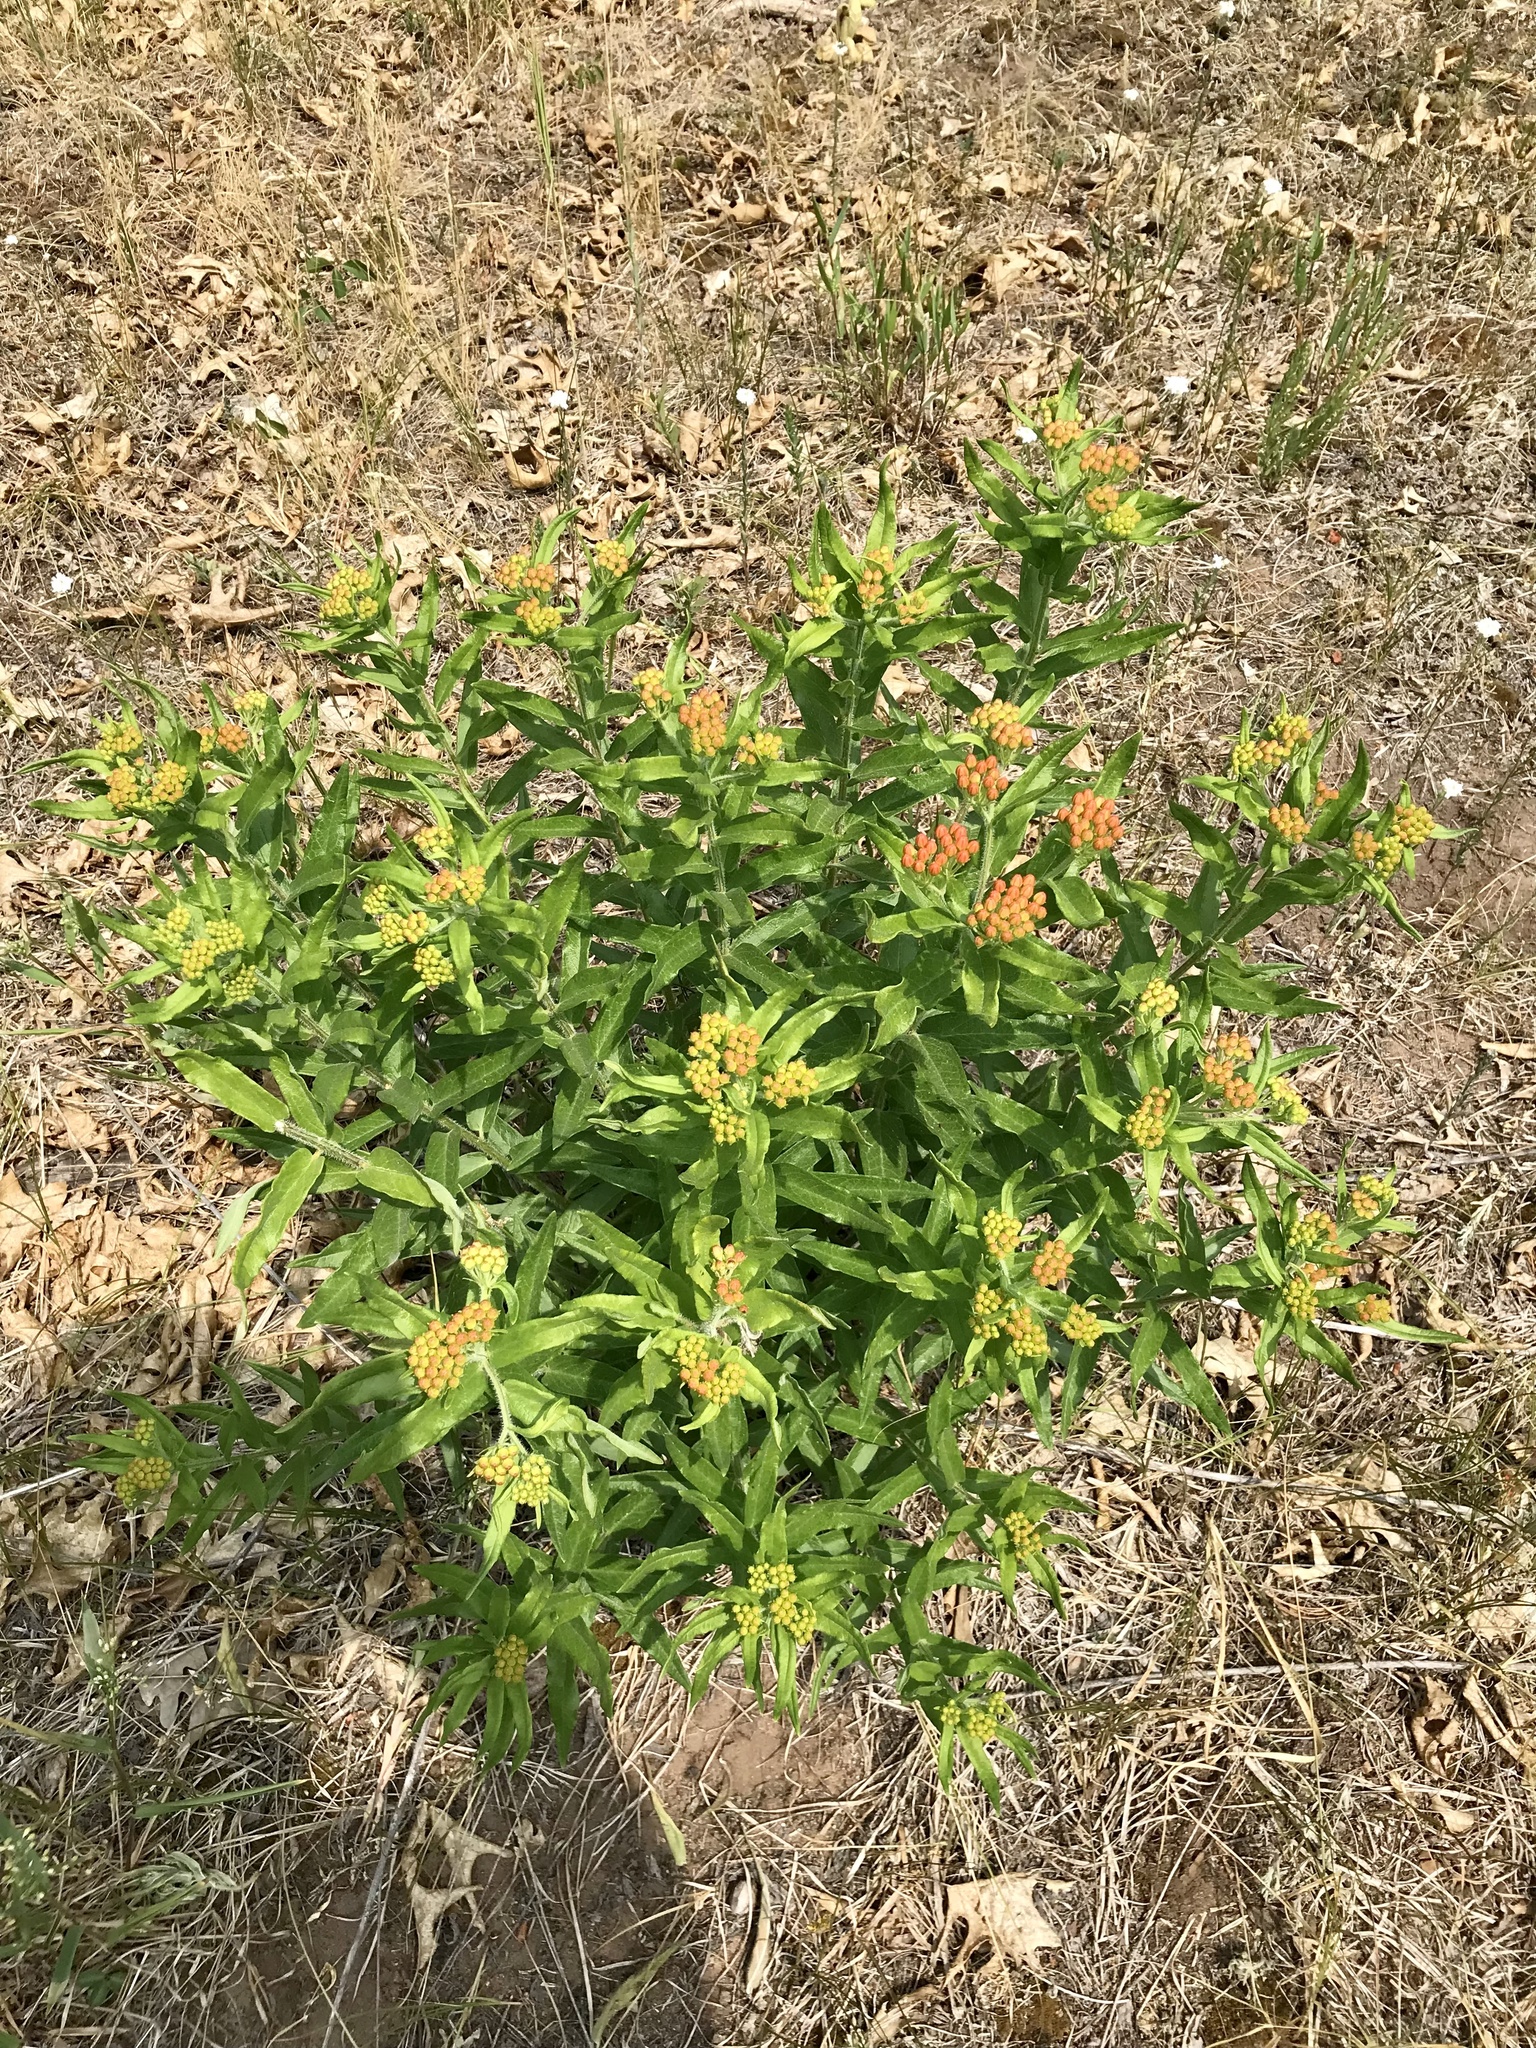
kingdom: Plantae
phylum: Tracheophyta
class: Magnoliopsida
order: Gentianales
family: Apocynaceae
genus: Asclepias
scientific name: Asclepias tuberosa
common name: Butterfly milkweed
